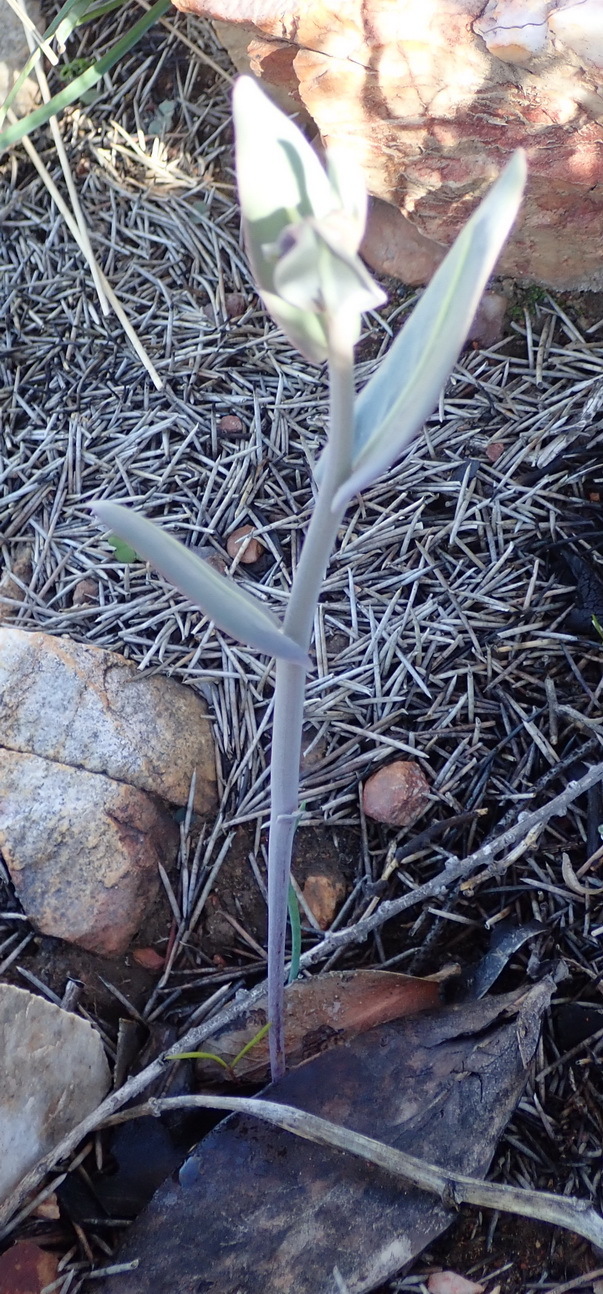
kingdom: Plantae
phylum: Tracheophyta
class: Magnoliopsida
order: Asterales
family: Asteraceae
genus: Othonna
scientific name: Othonna gymnodiscus
